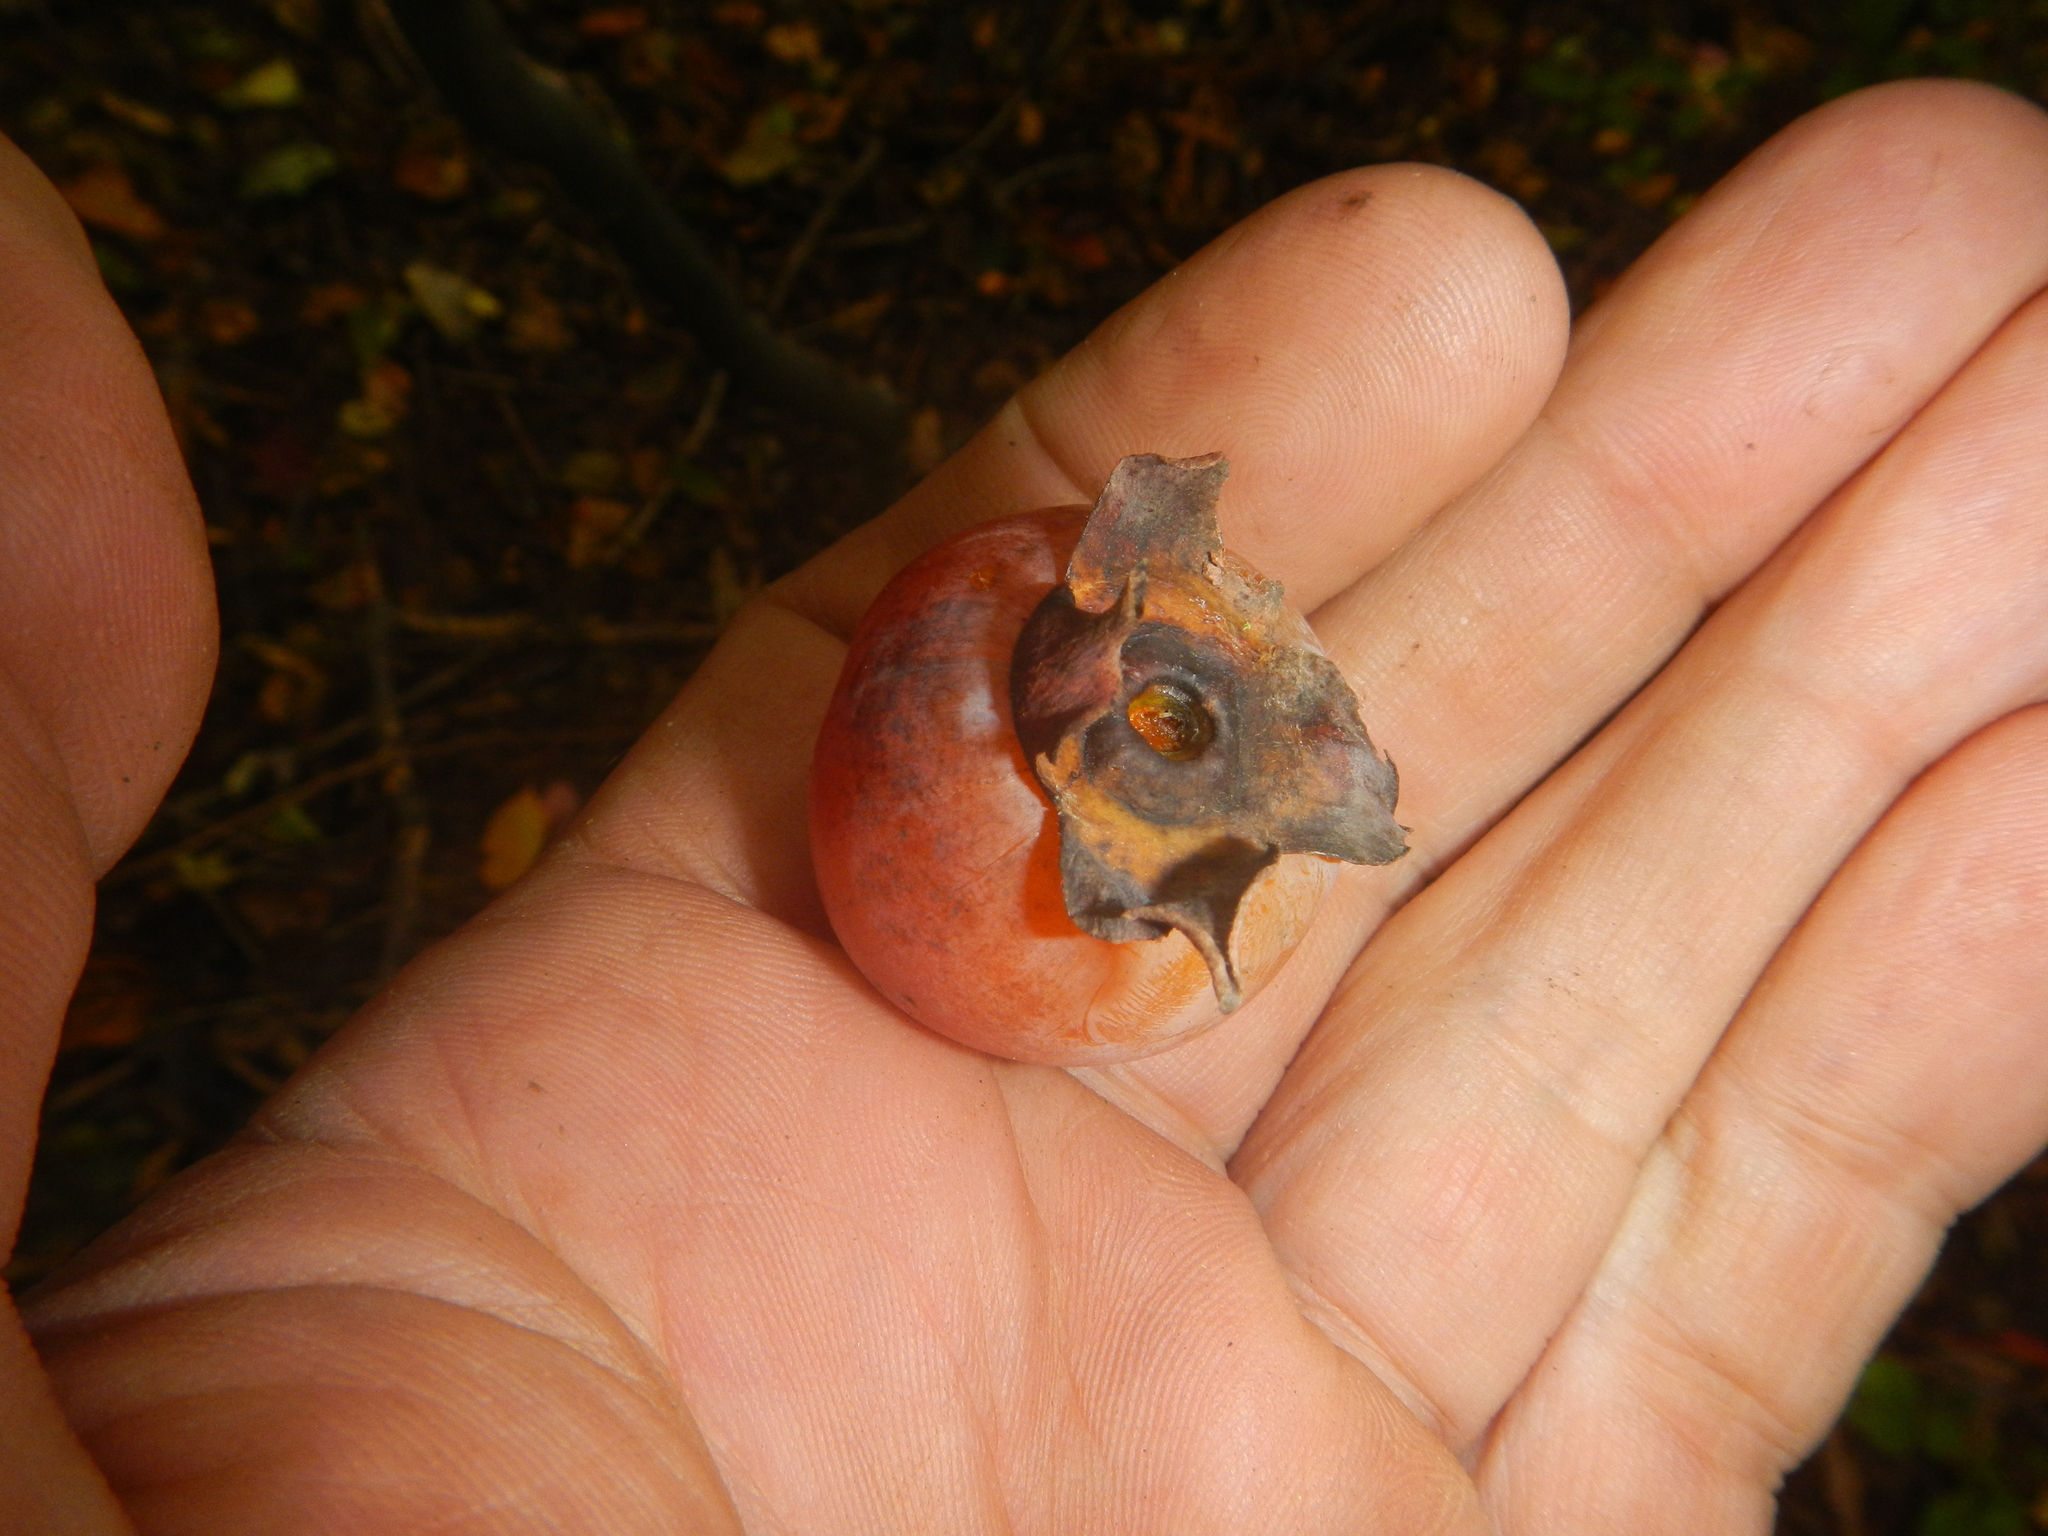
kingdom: Plantae
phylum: Tracheophyta
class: Magnoliopsida
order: Ericales
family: Ebenaceae
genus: Diospyros
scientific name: Diospyros virginiana
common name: Persimmon
